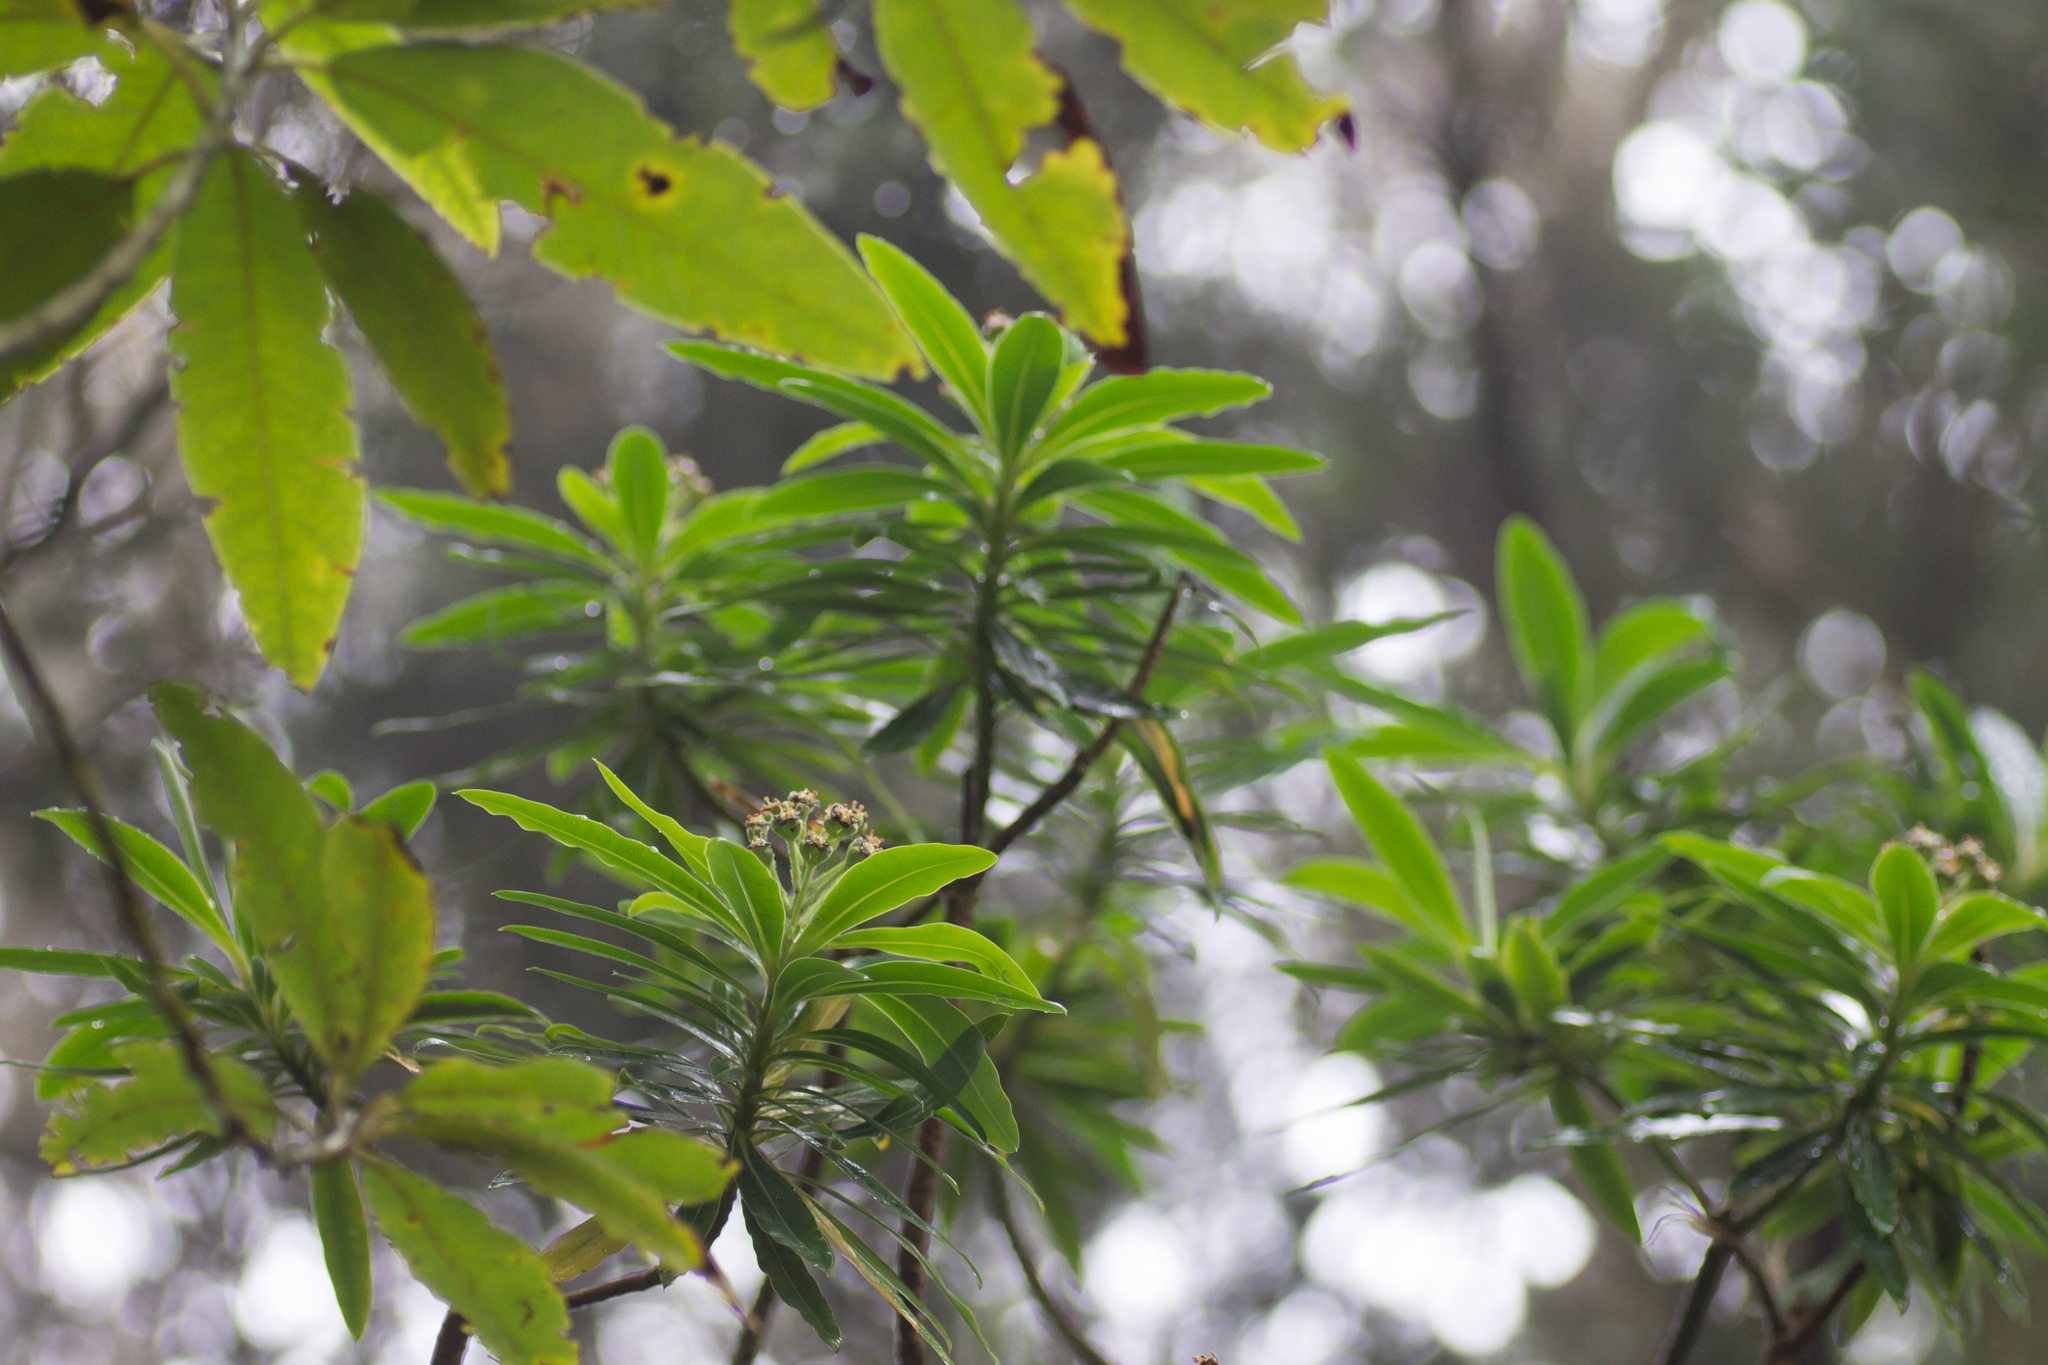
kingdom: Plantae
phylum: Tracheophyta
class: Magnoliopsida
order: Malpighiales
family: Euphorbiaceae
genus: Euphorbia
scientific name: Euphorbia mellifera
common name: Canary spurge
